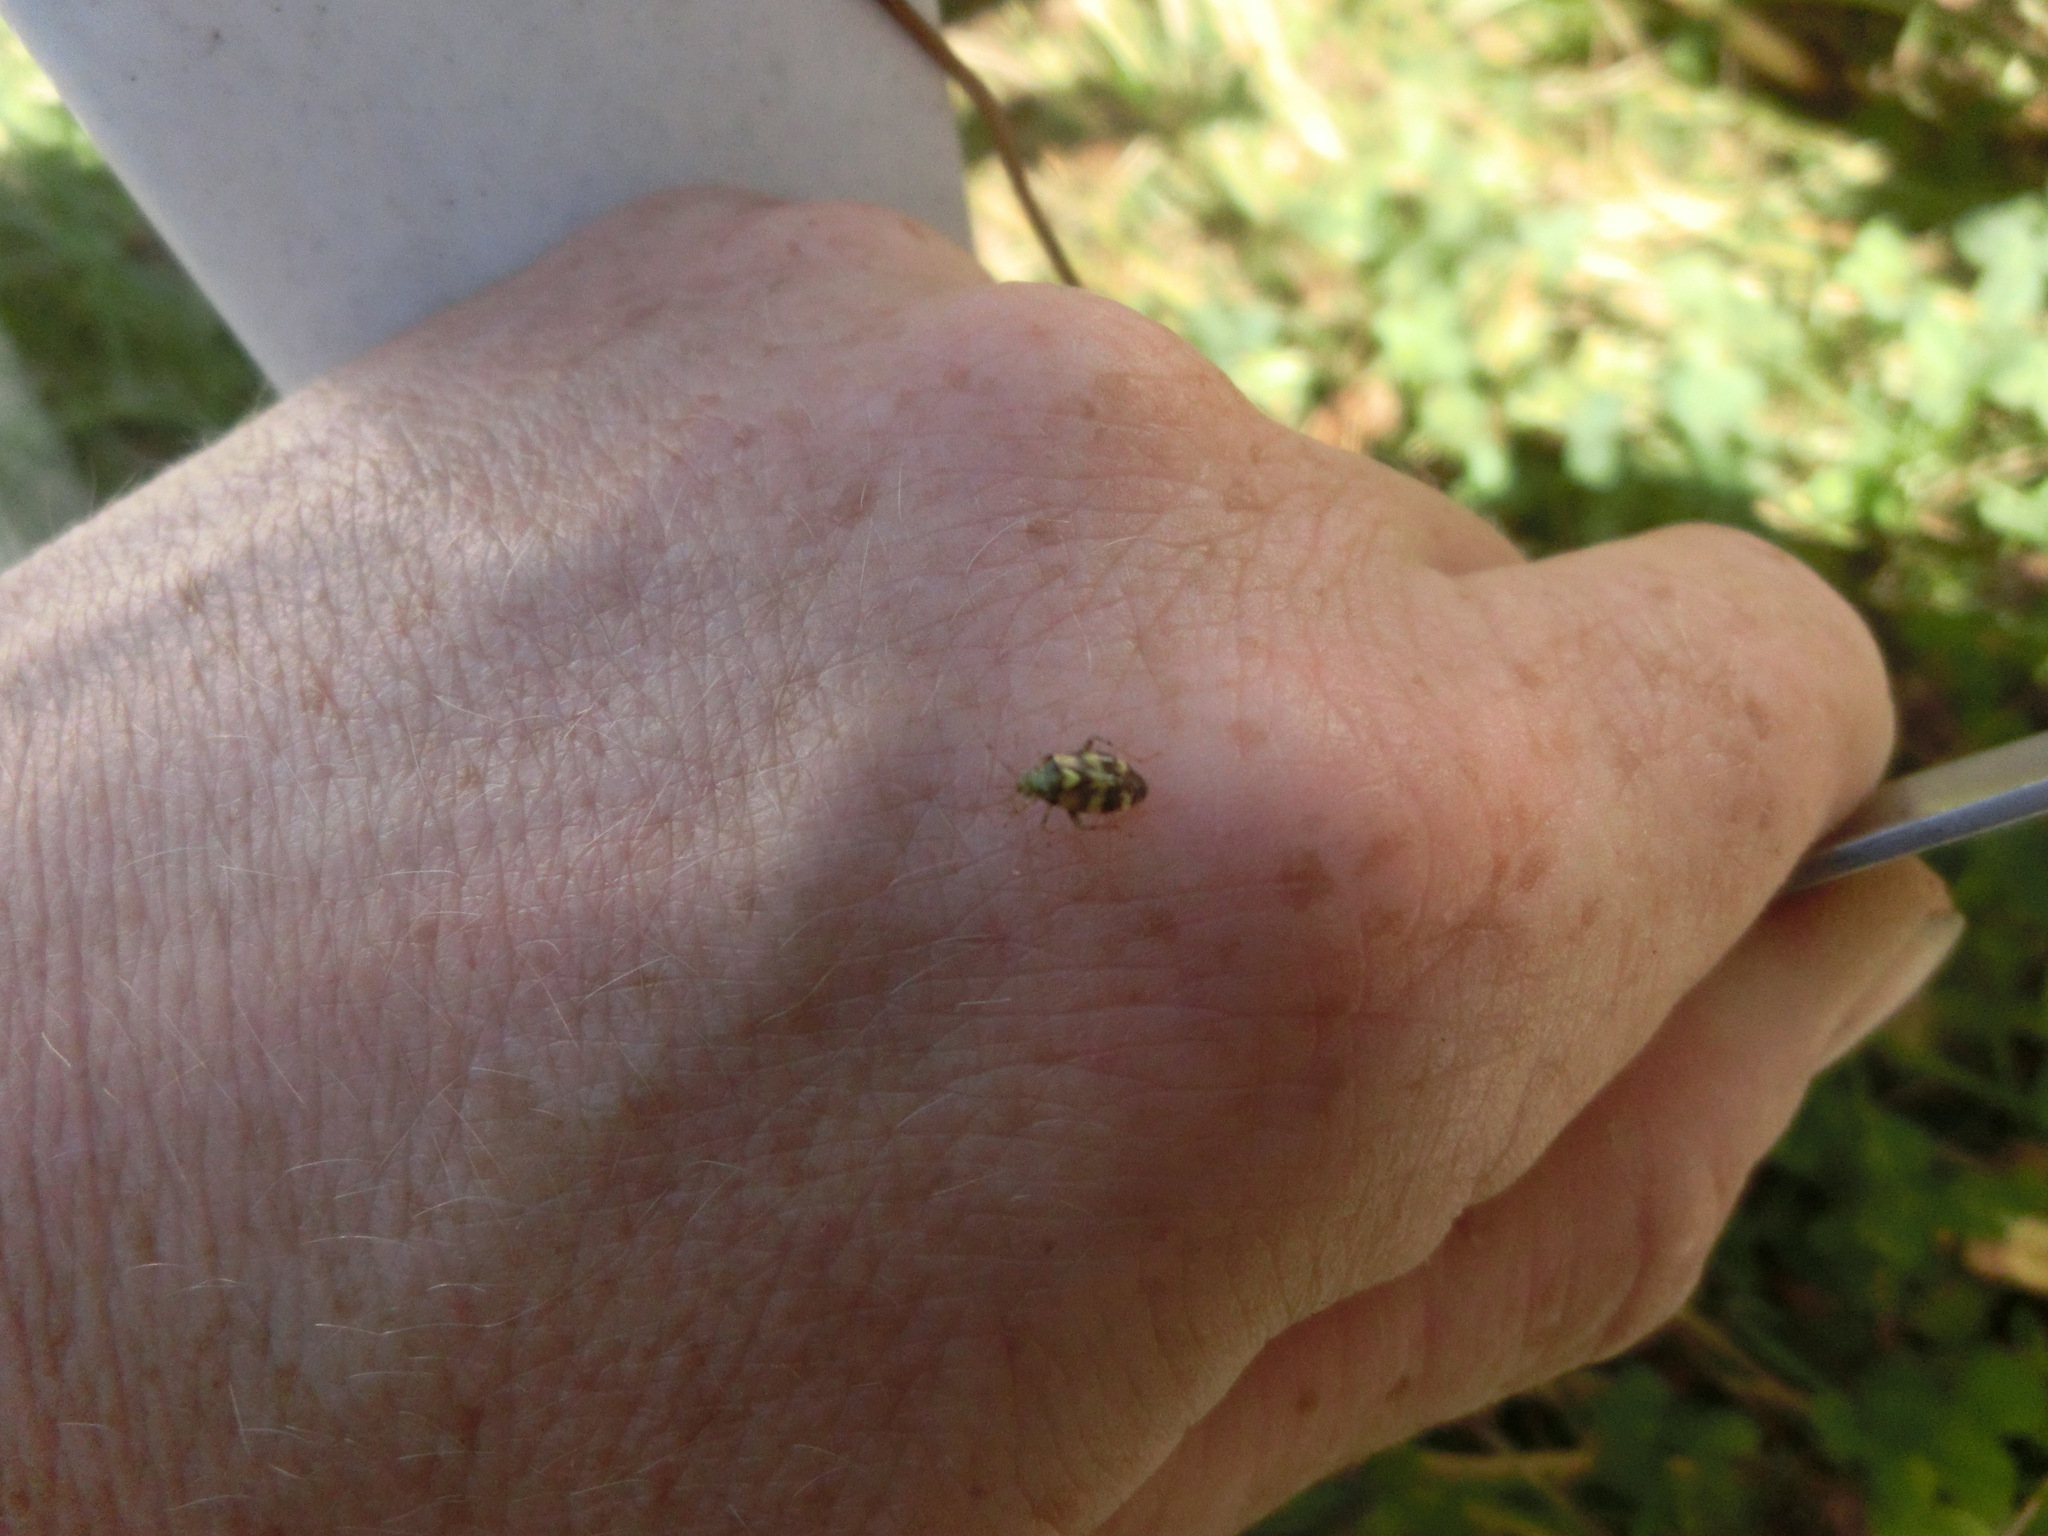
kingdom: Animalia
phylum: Arthropoda
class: Insecta
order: Hemiptera
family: Miridae
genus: Liocoris
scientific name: Liocoris tripustulatus
